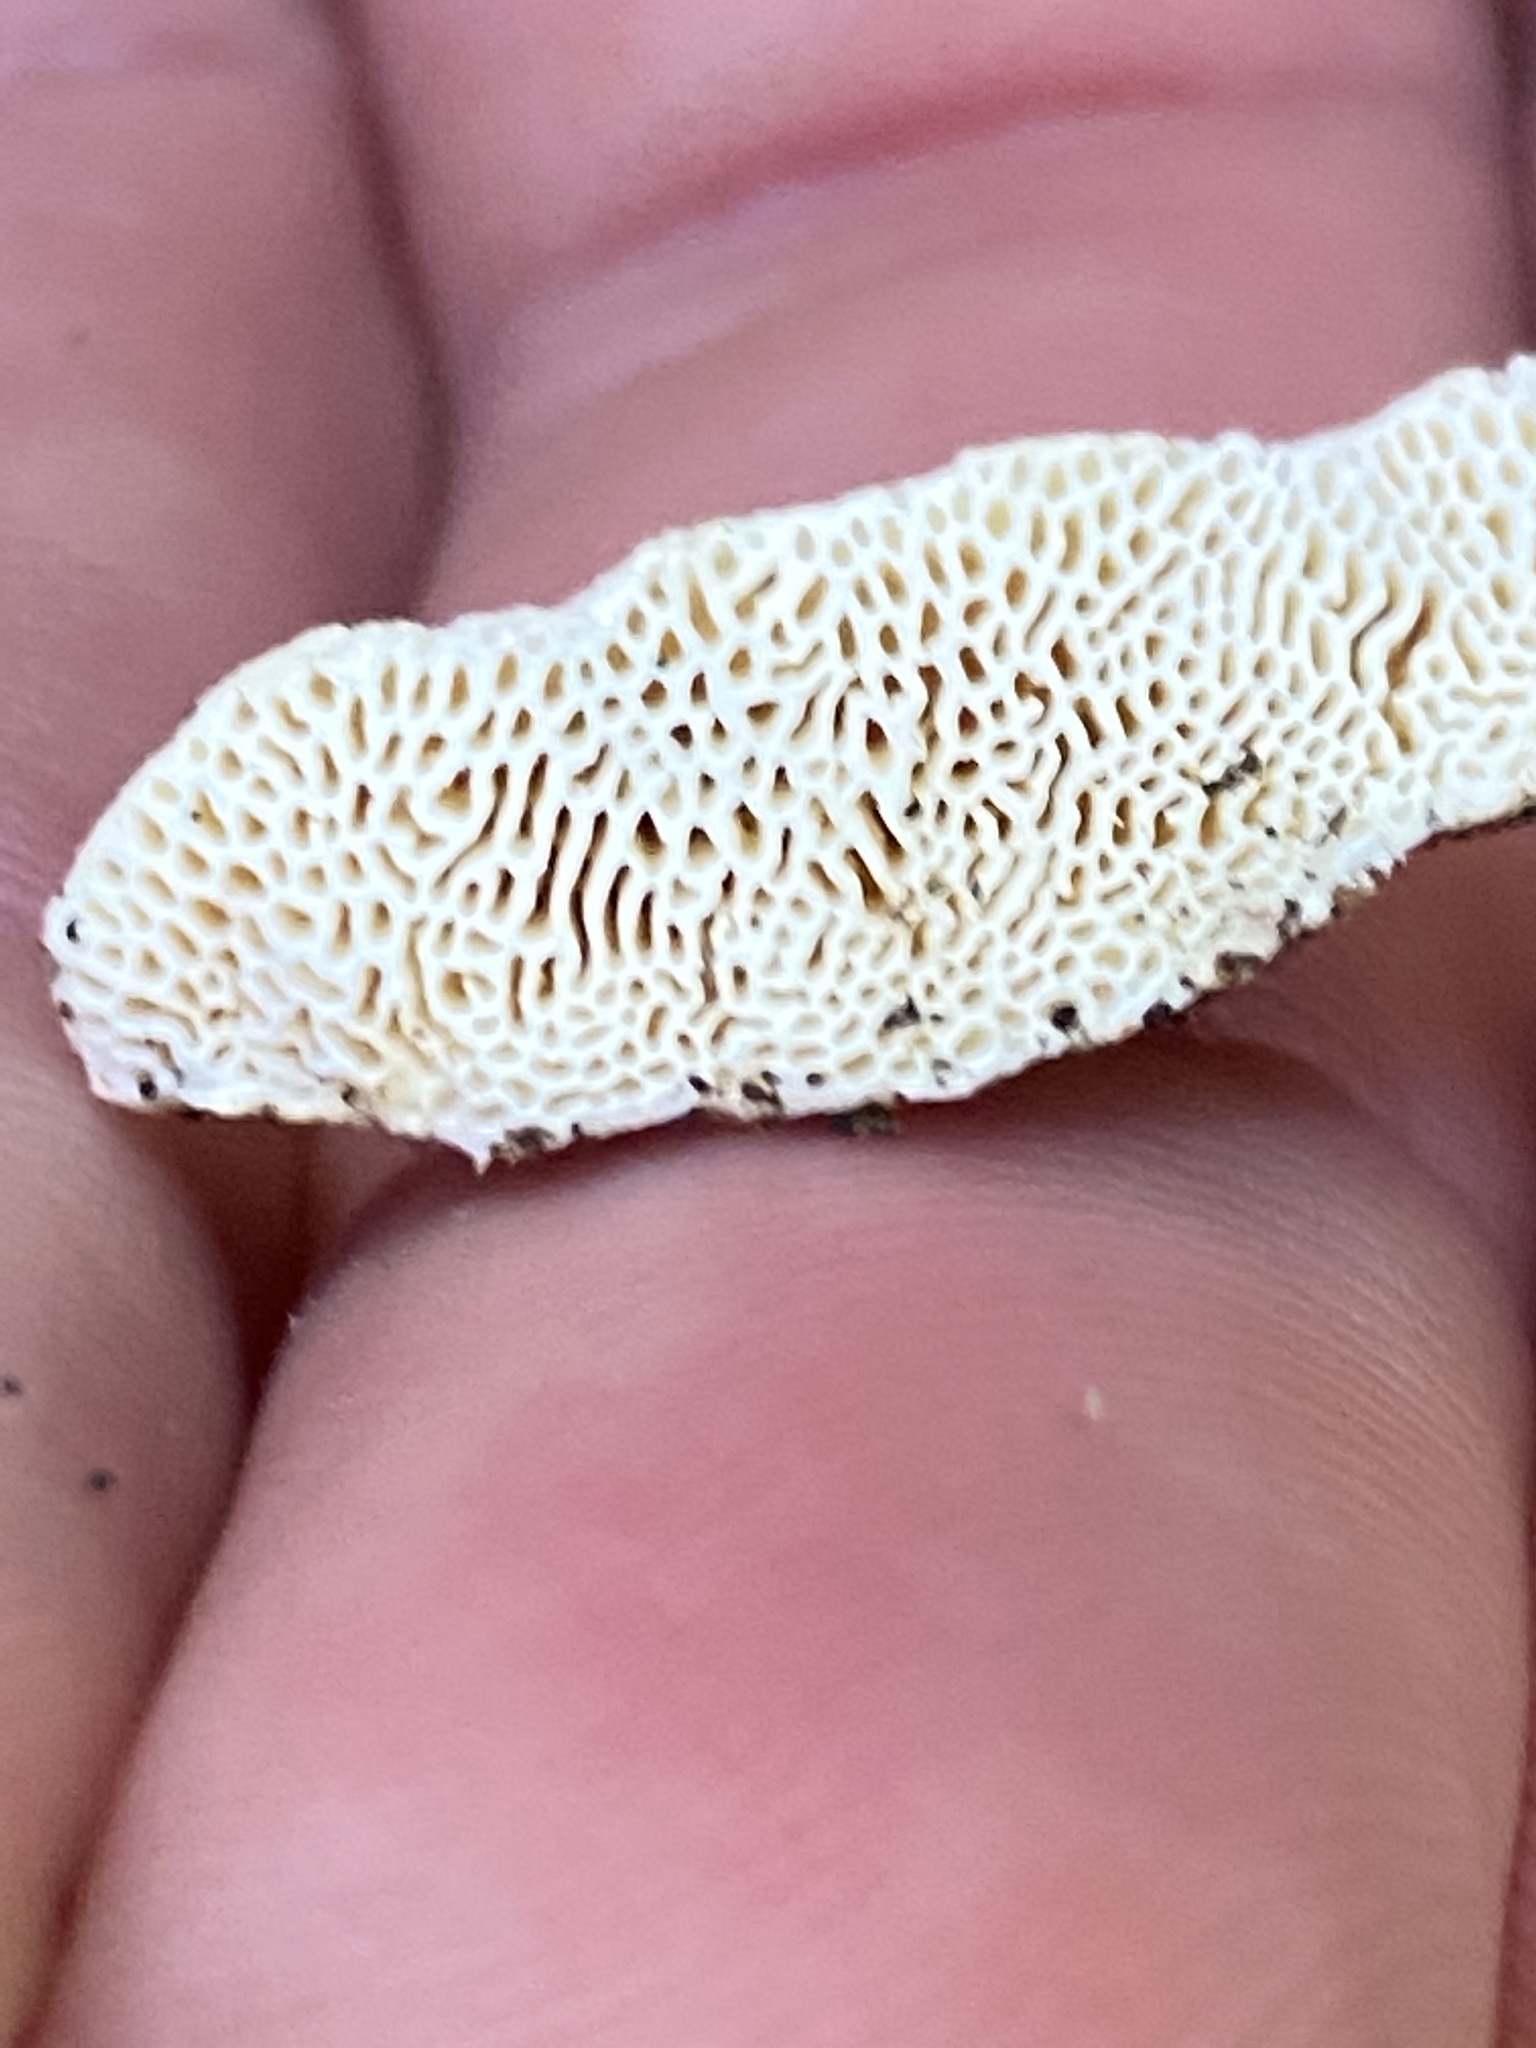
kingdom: Fungi
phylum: Basidiomycota
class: Agaricomycetes
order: Polyporales
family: Fomitopsidaceae
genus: Fomitopsis
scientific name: Fomitopsis
